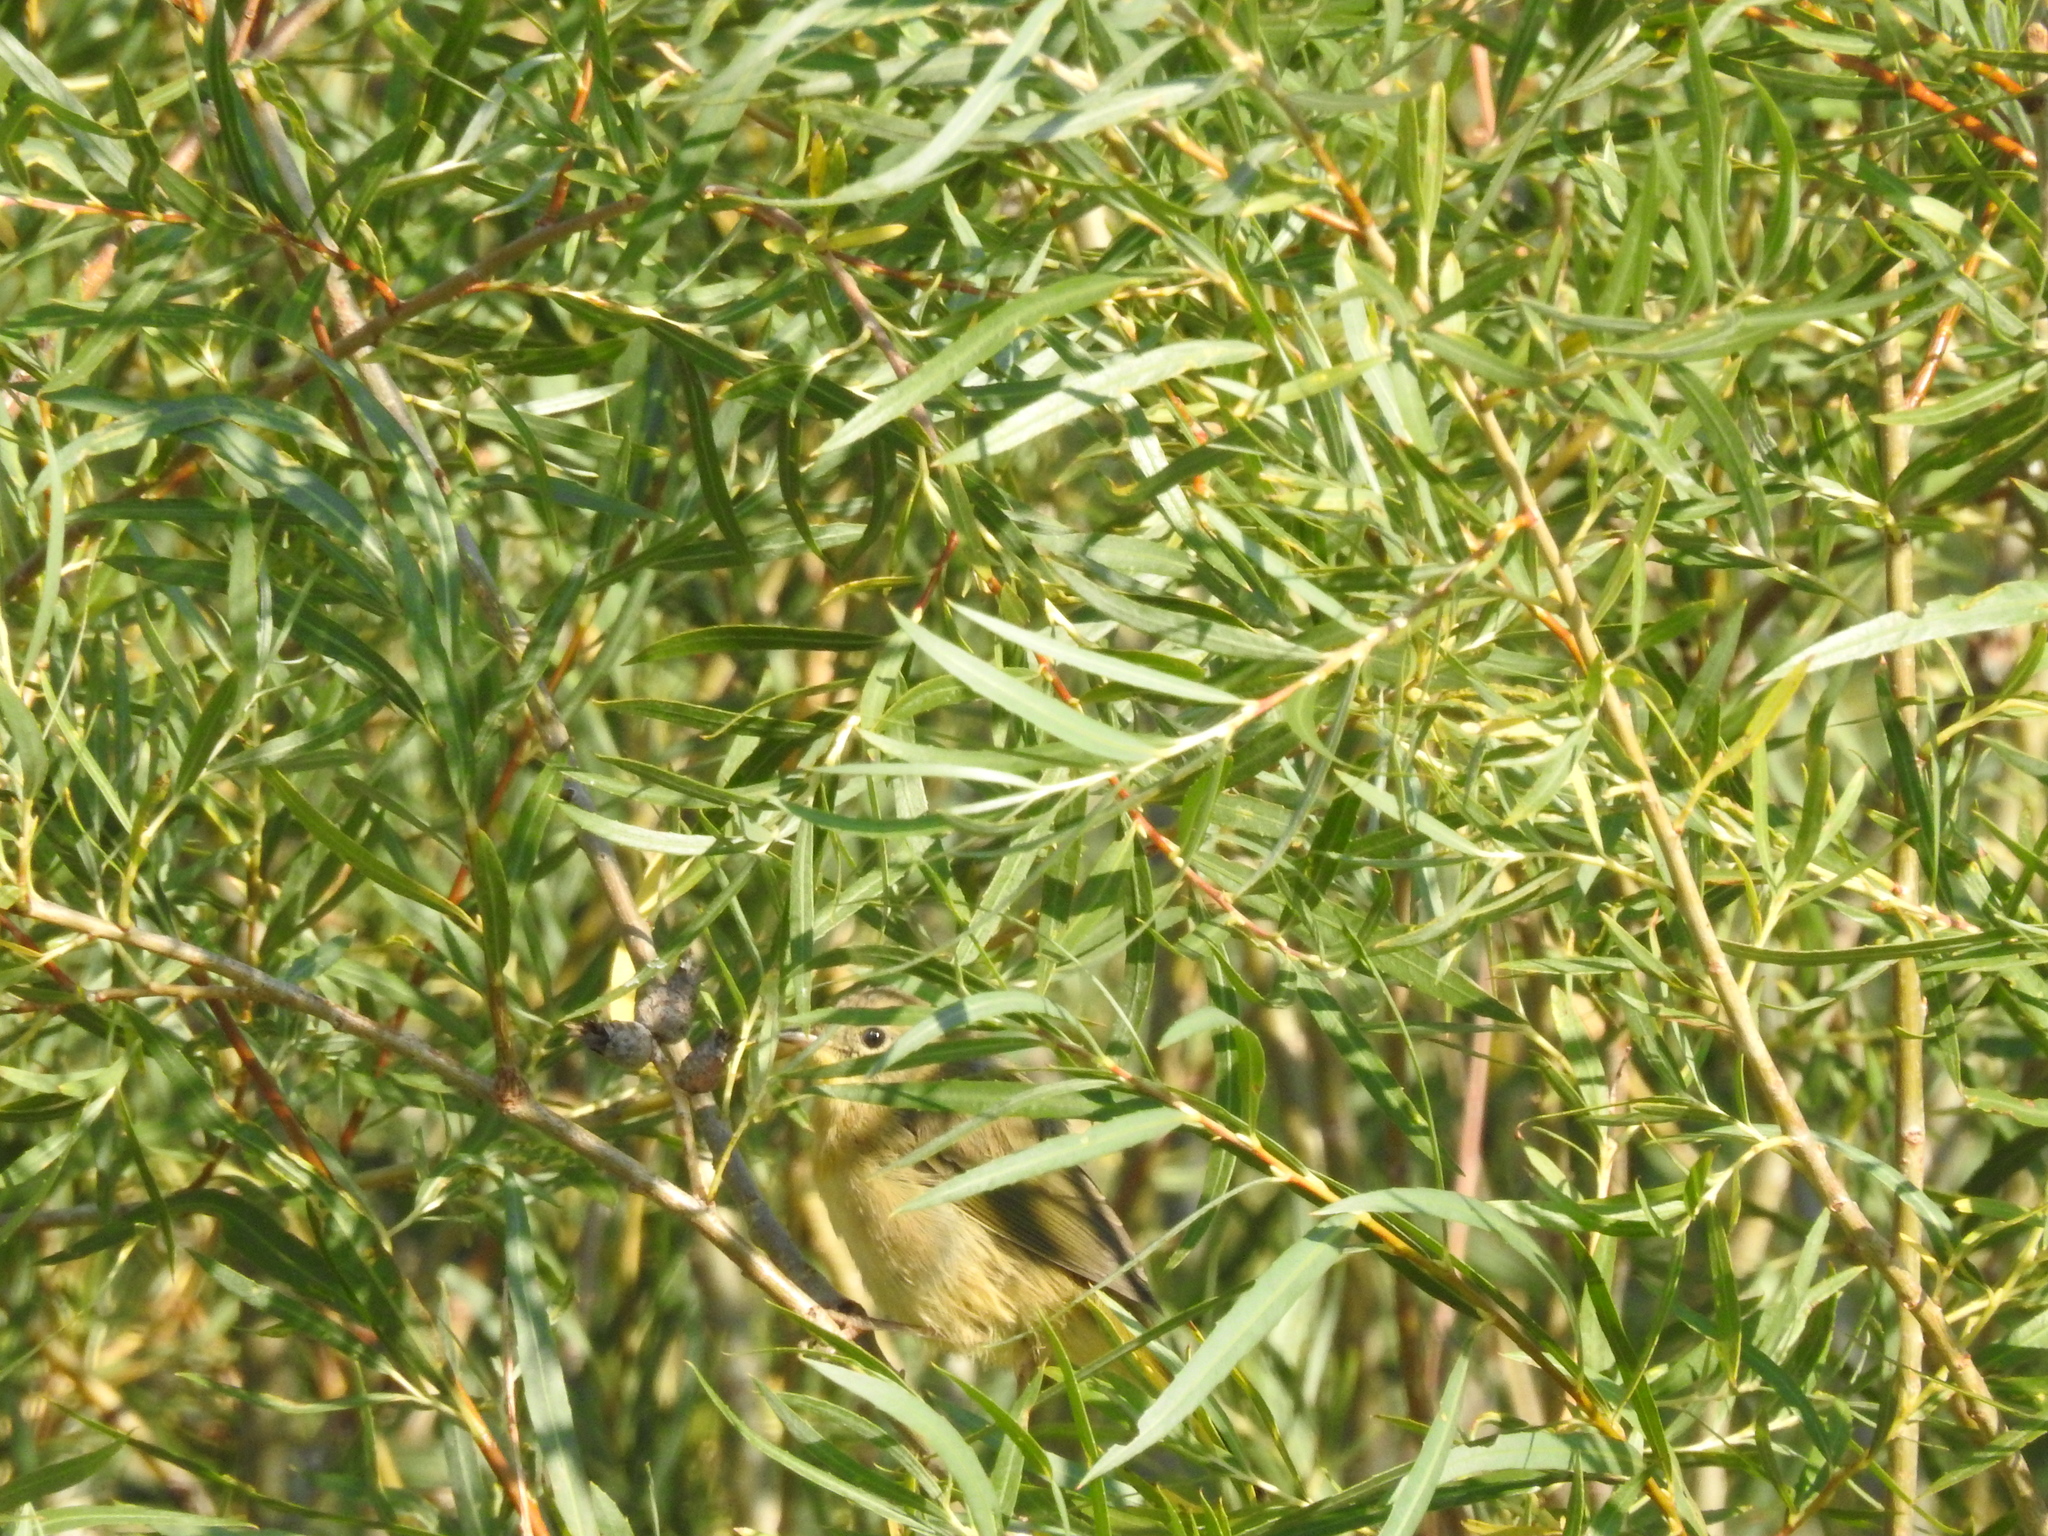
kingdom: Animalia
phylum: Chordata
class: Aves
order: Passeriformes
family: Parulidae
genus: Geothlypis
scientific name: Geothlypis trichas
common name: Common yellowthroat
